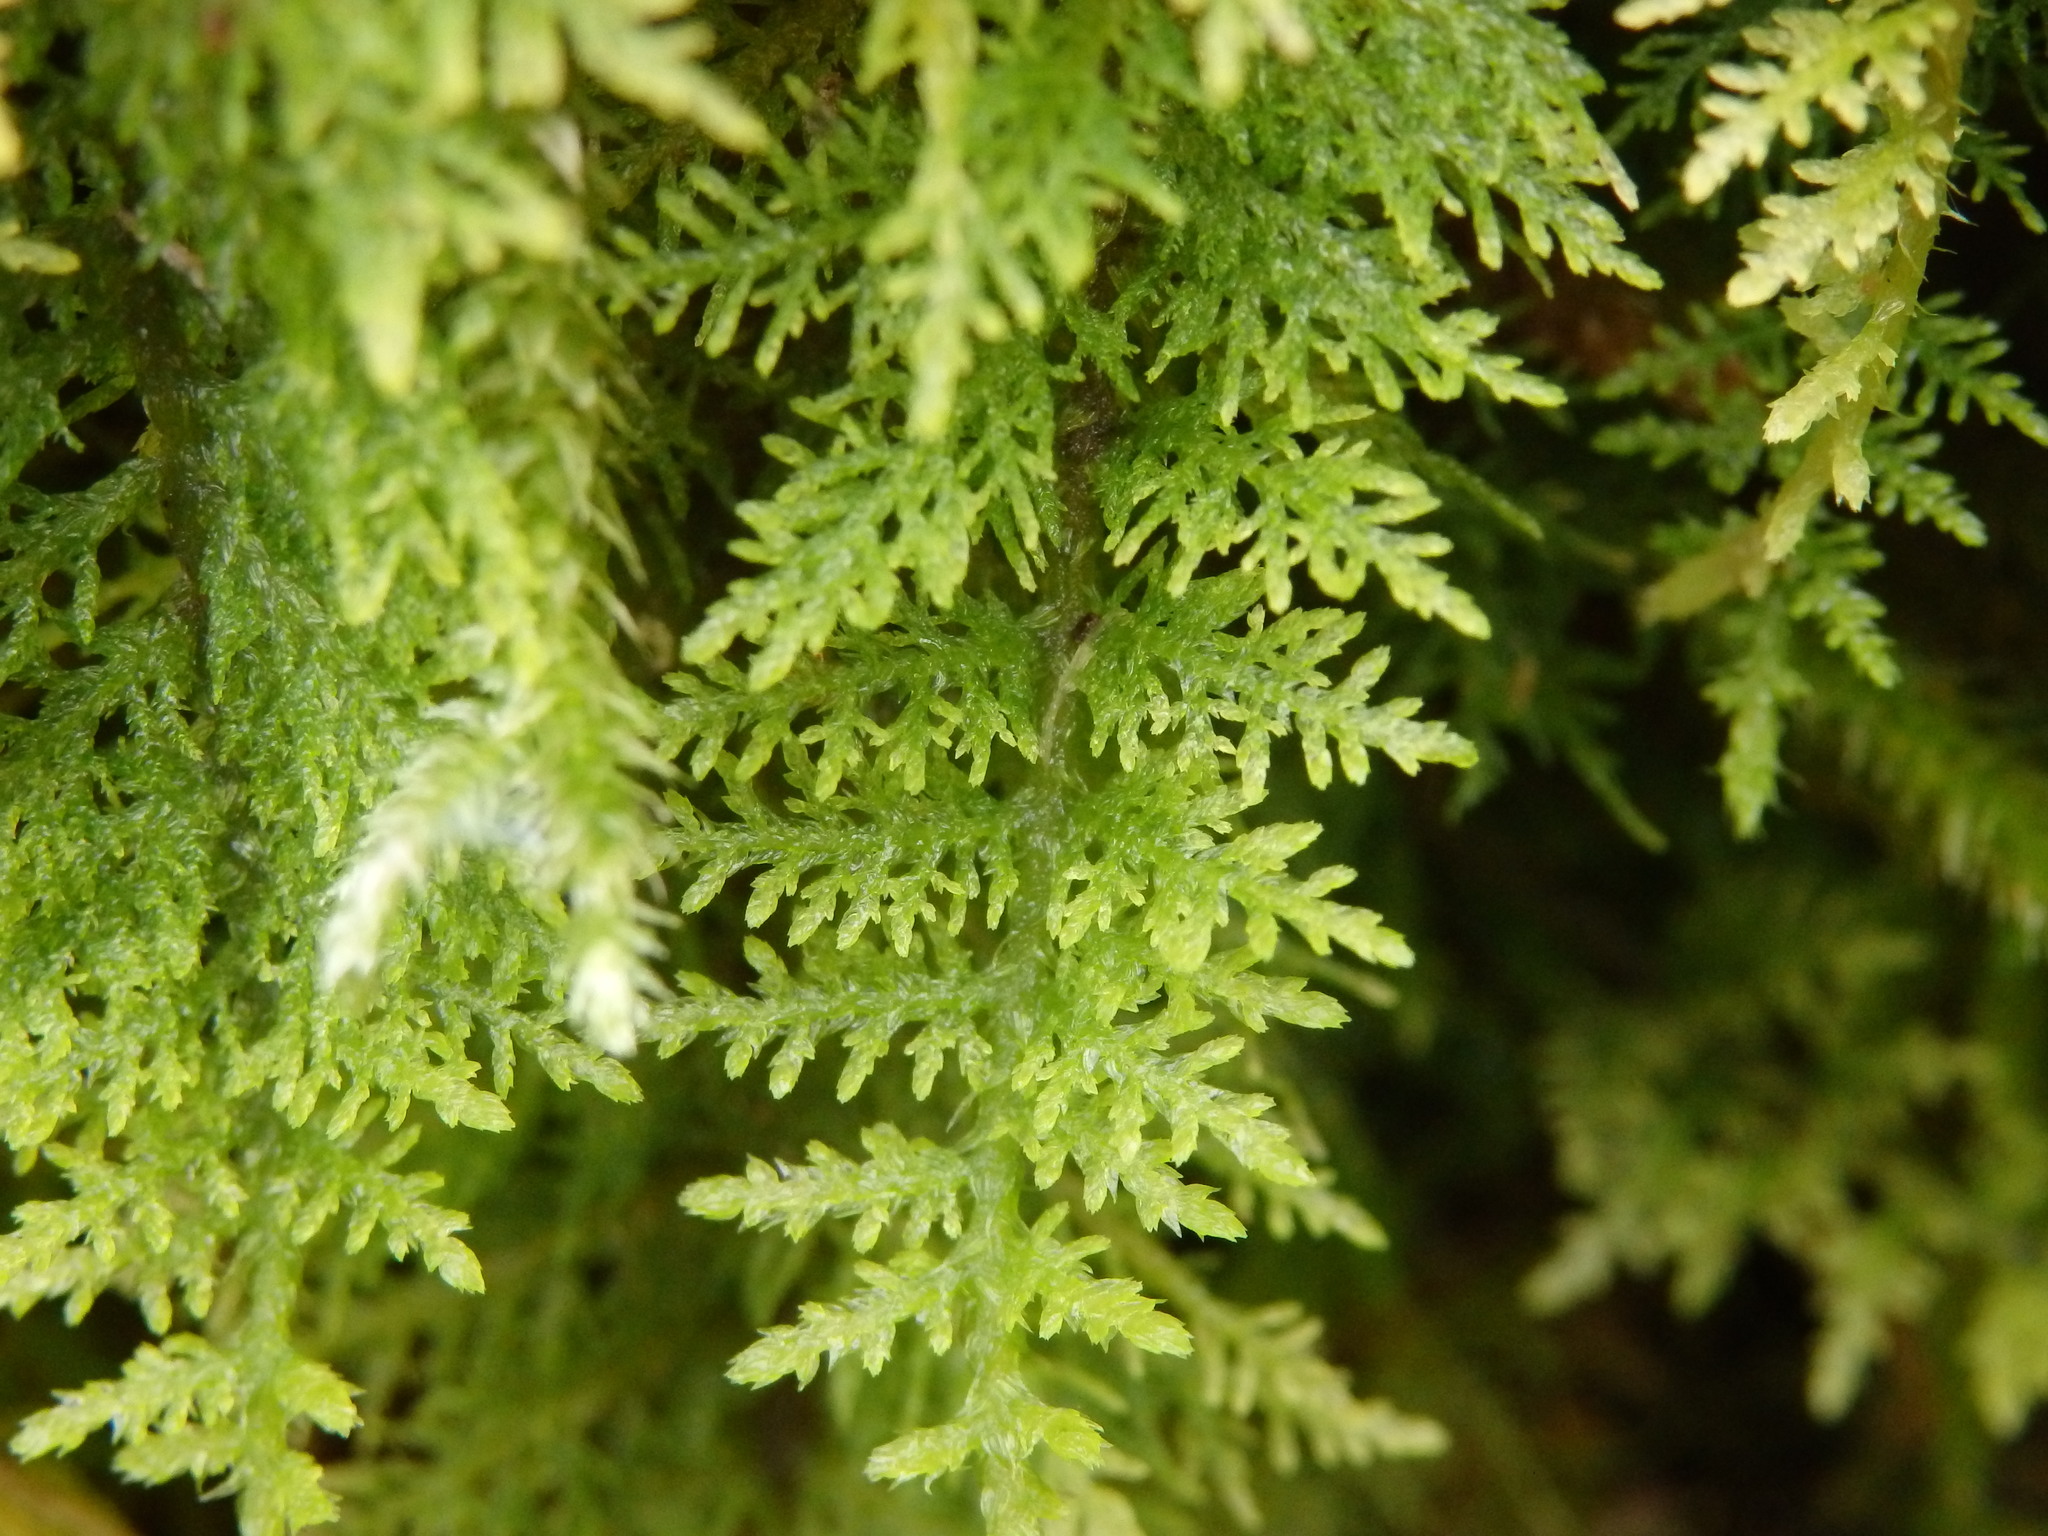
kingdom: Plantae
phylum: Bryophyta
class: Bryopsida
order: Hypnales
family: Thuidiaceae
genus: Thuidium
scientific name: Thuidium tamariscinum
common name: Common tamarisk-moss
